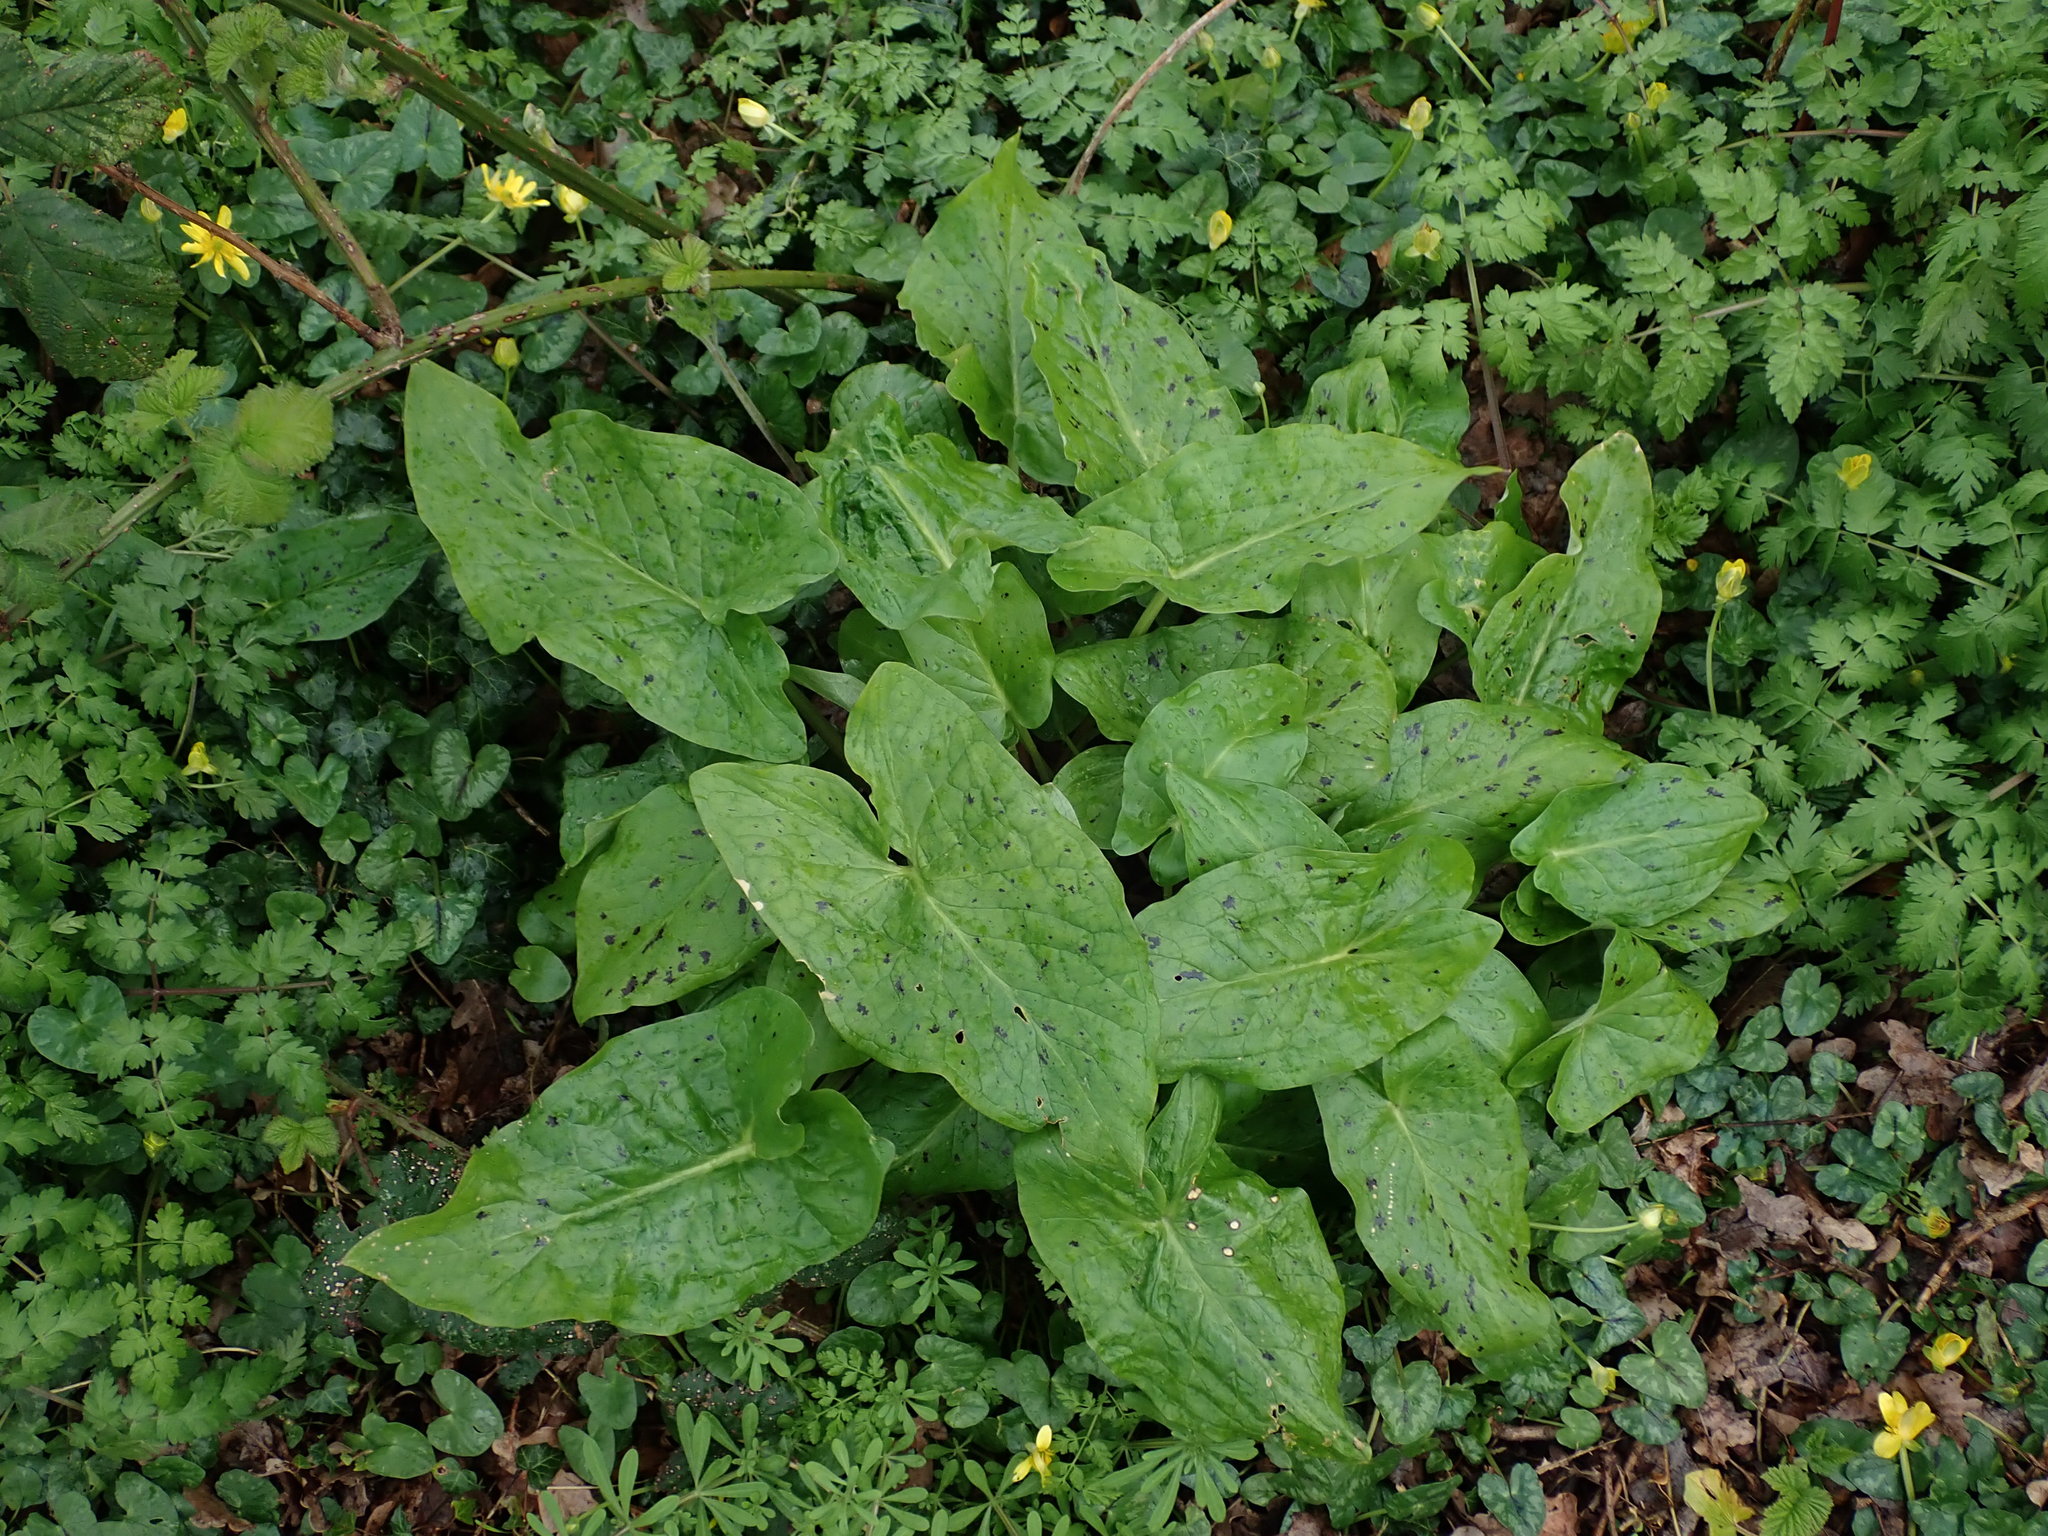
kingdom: Plantae
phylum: Tracheophyta
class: Liliopsida
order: Alismatales
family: Araceae
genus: Arum
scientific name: Arum maculatum
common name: Lords-and-ladies
